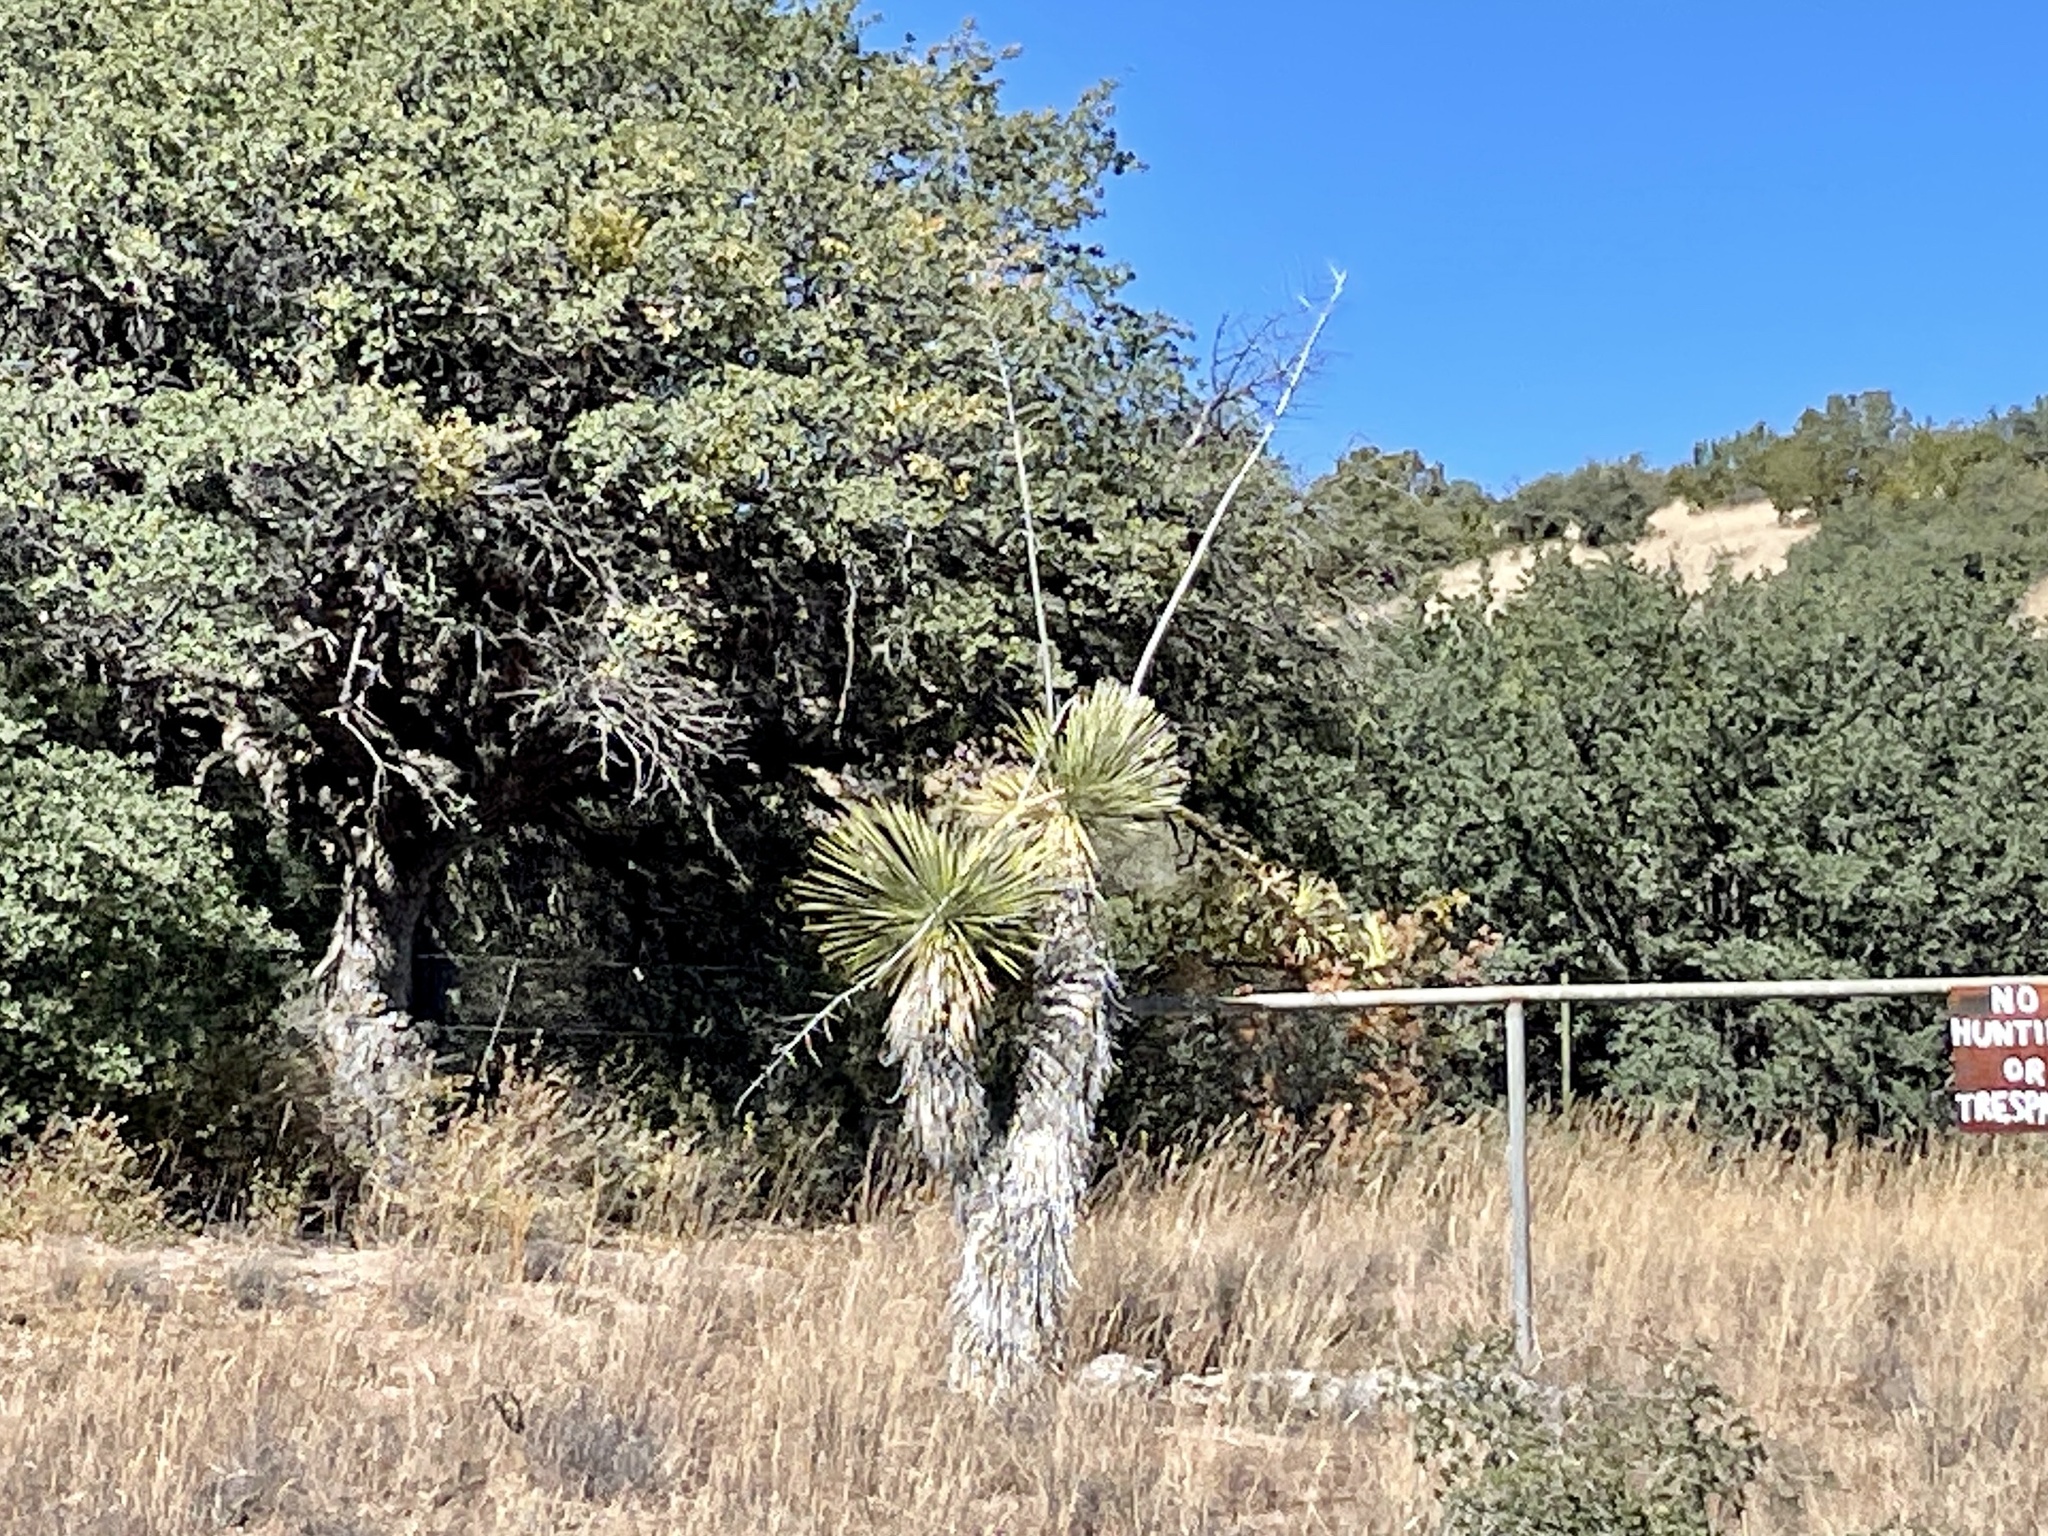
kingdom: Plantae
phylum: Tracheophyta
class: Liliopsida
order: Asparagales
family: Asparagaceae
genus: Yucca
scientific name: Yucca elata
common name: Palmella
